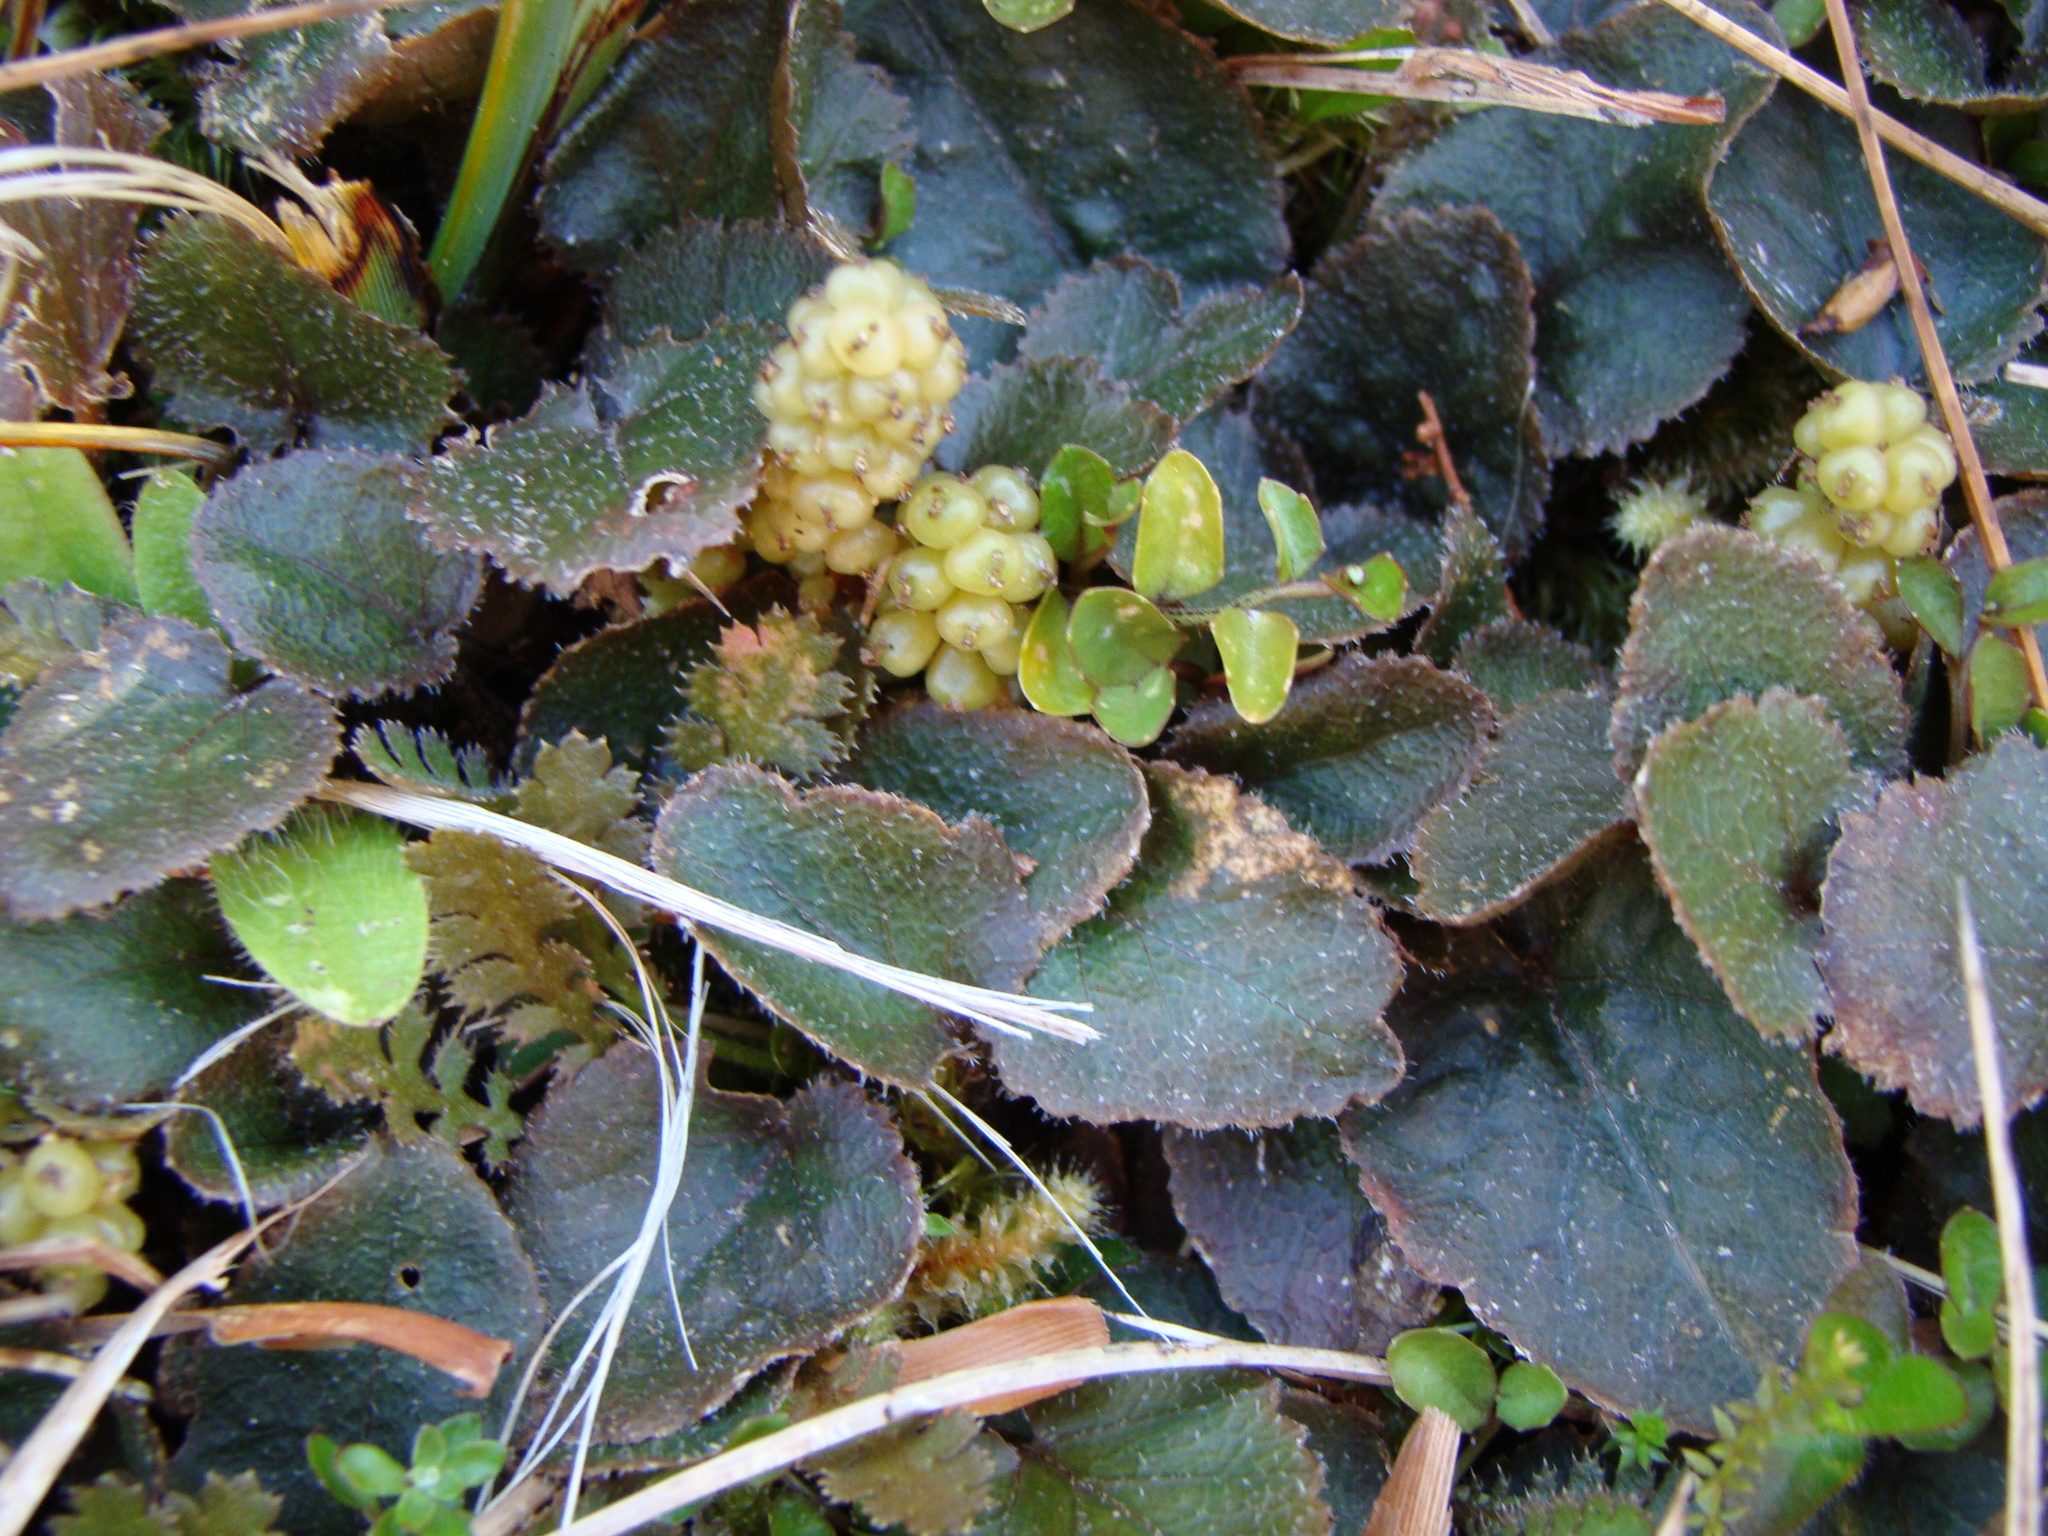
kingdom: Plantae
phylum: Tracheophyta
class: Magnoliopsida
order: Gunnerales
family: Gunneraceae
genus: Gunnera
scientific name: Gunnera prorepens
